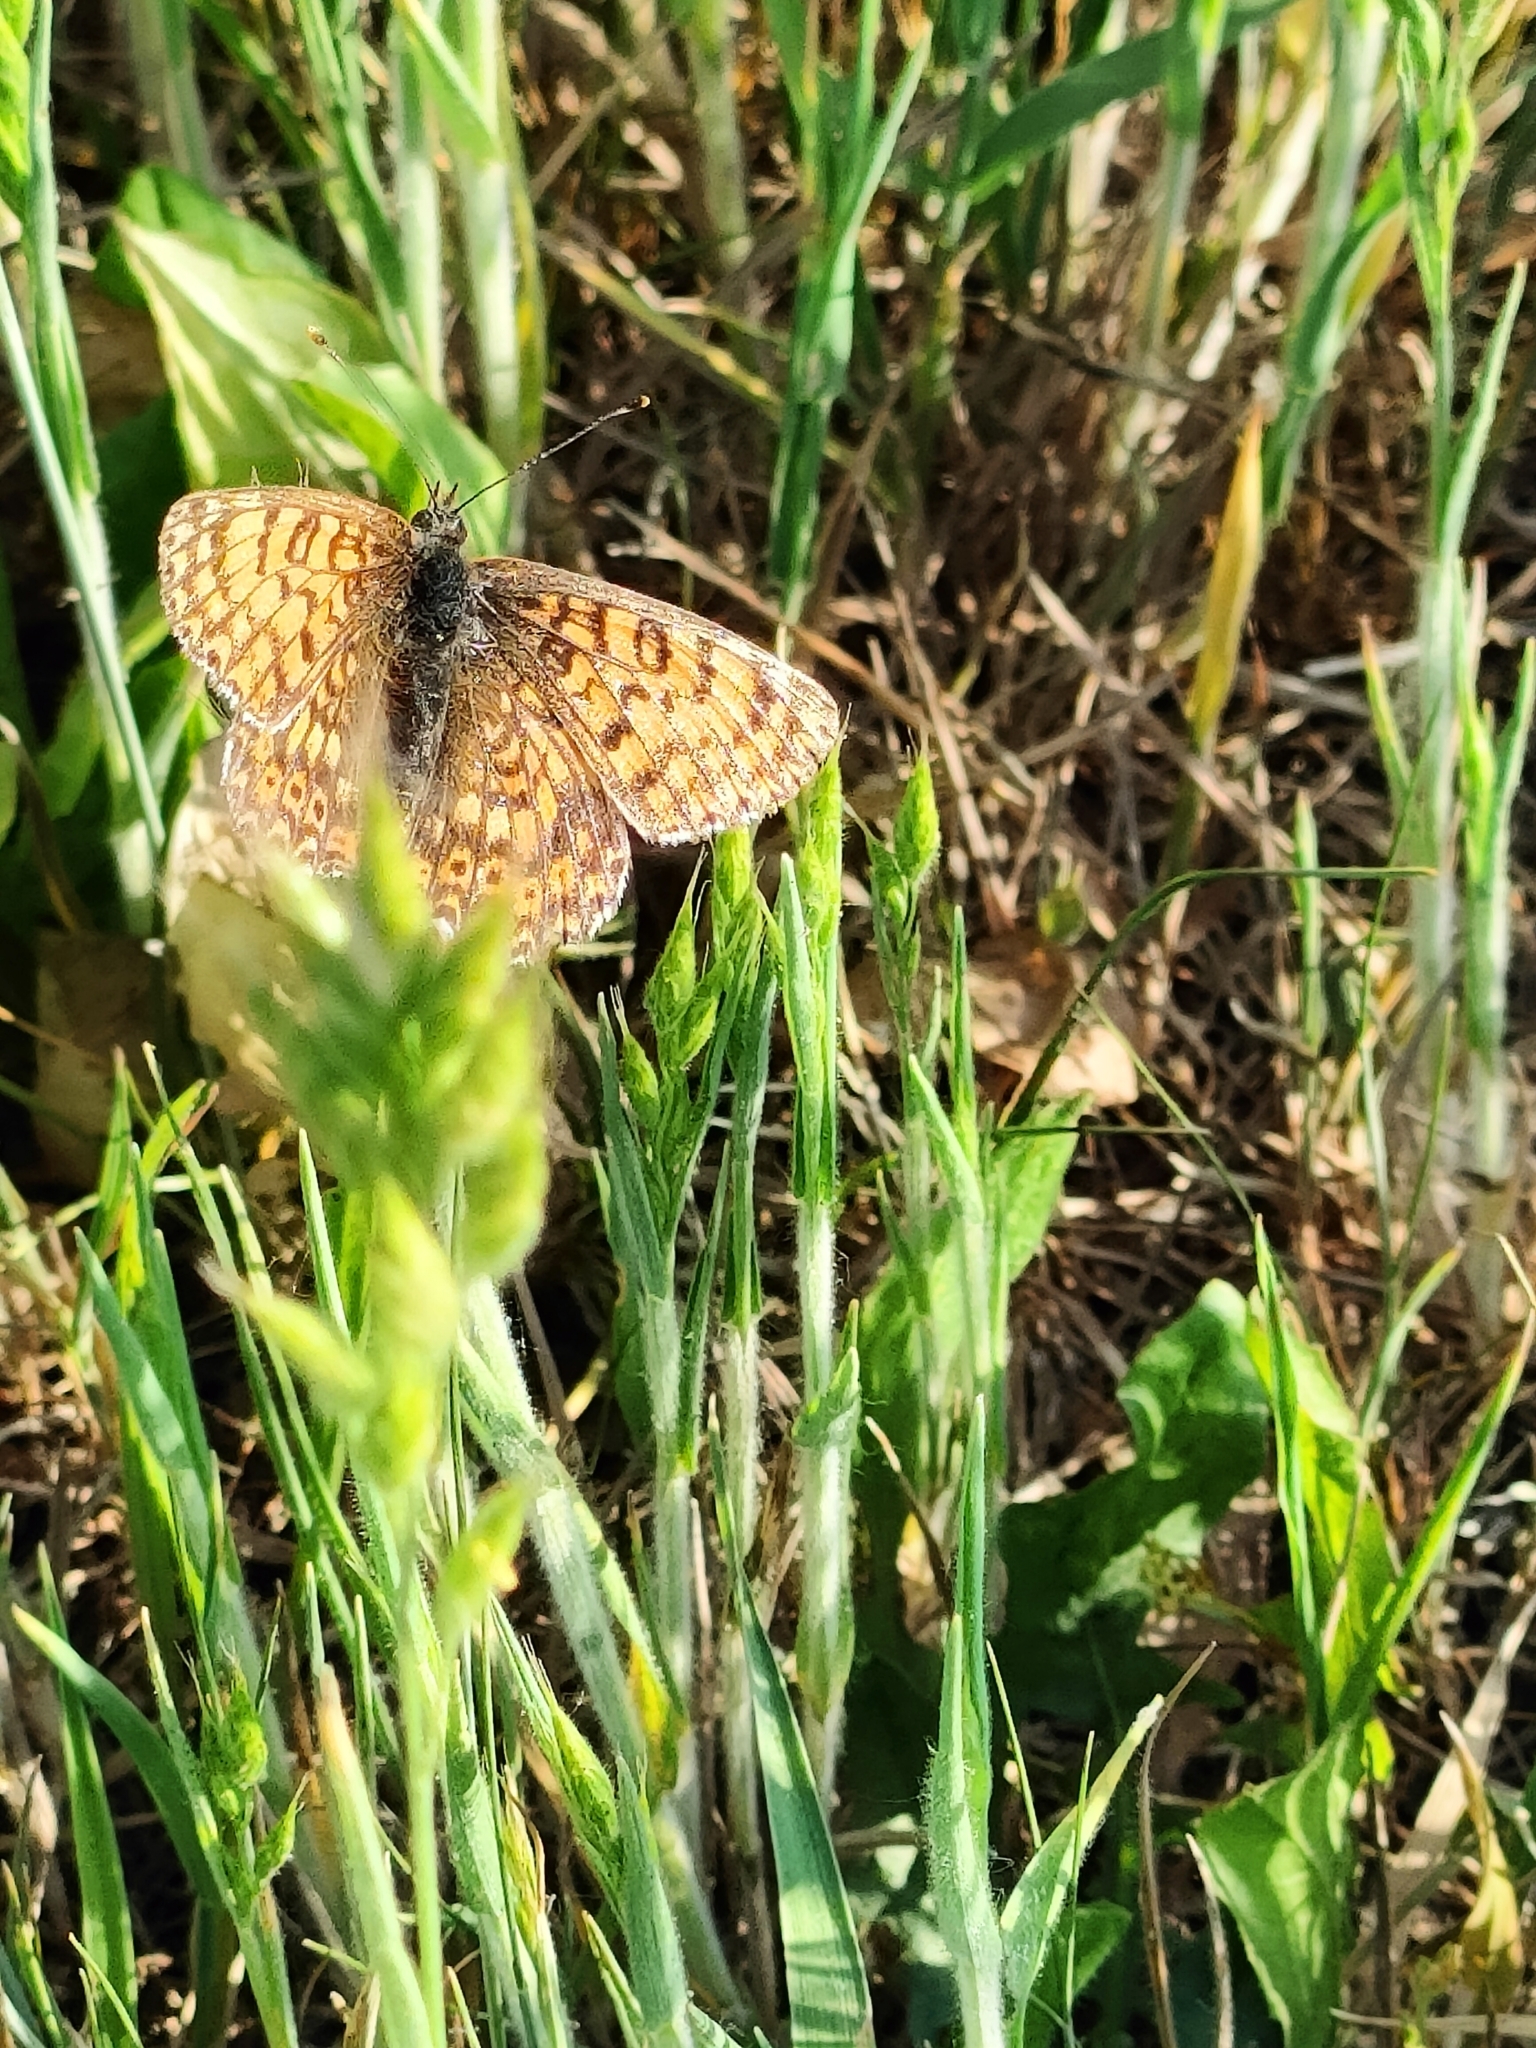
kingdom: Animalia
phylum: Arthropoda
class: Insecta
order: Lepidoptera
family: Nymphalidae
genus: Melitaea
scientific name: Melitaea cinxia
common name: Glanville fritillary
